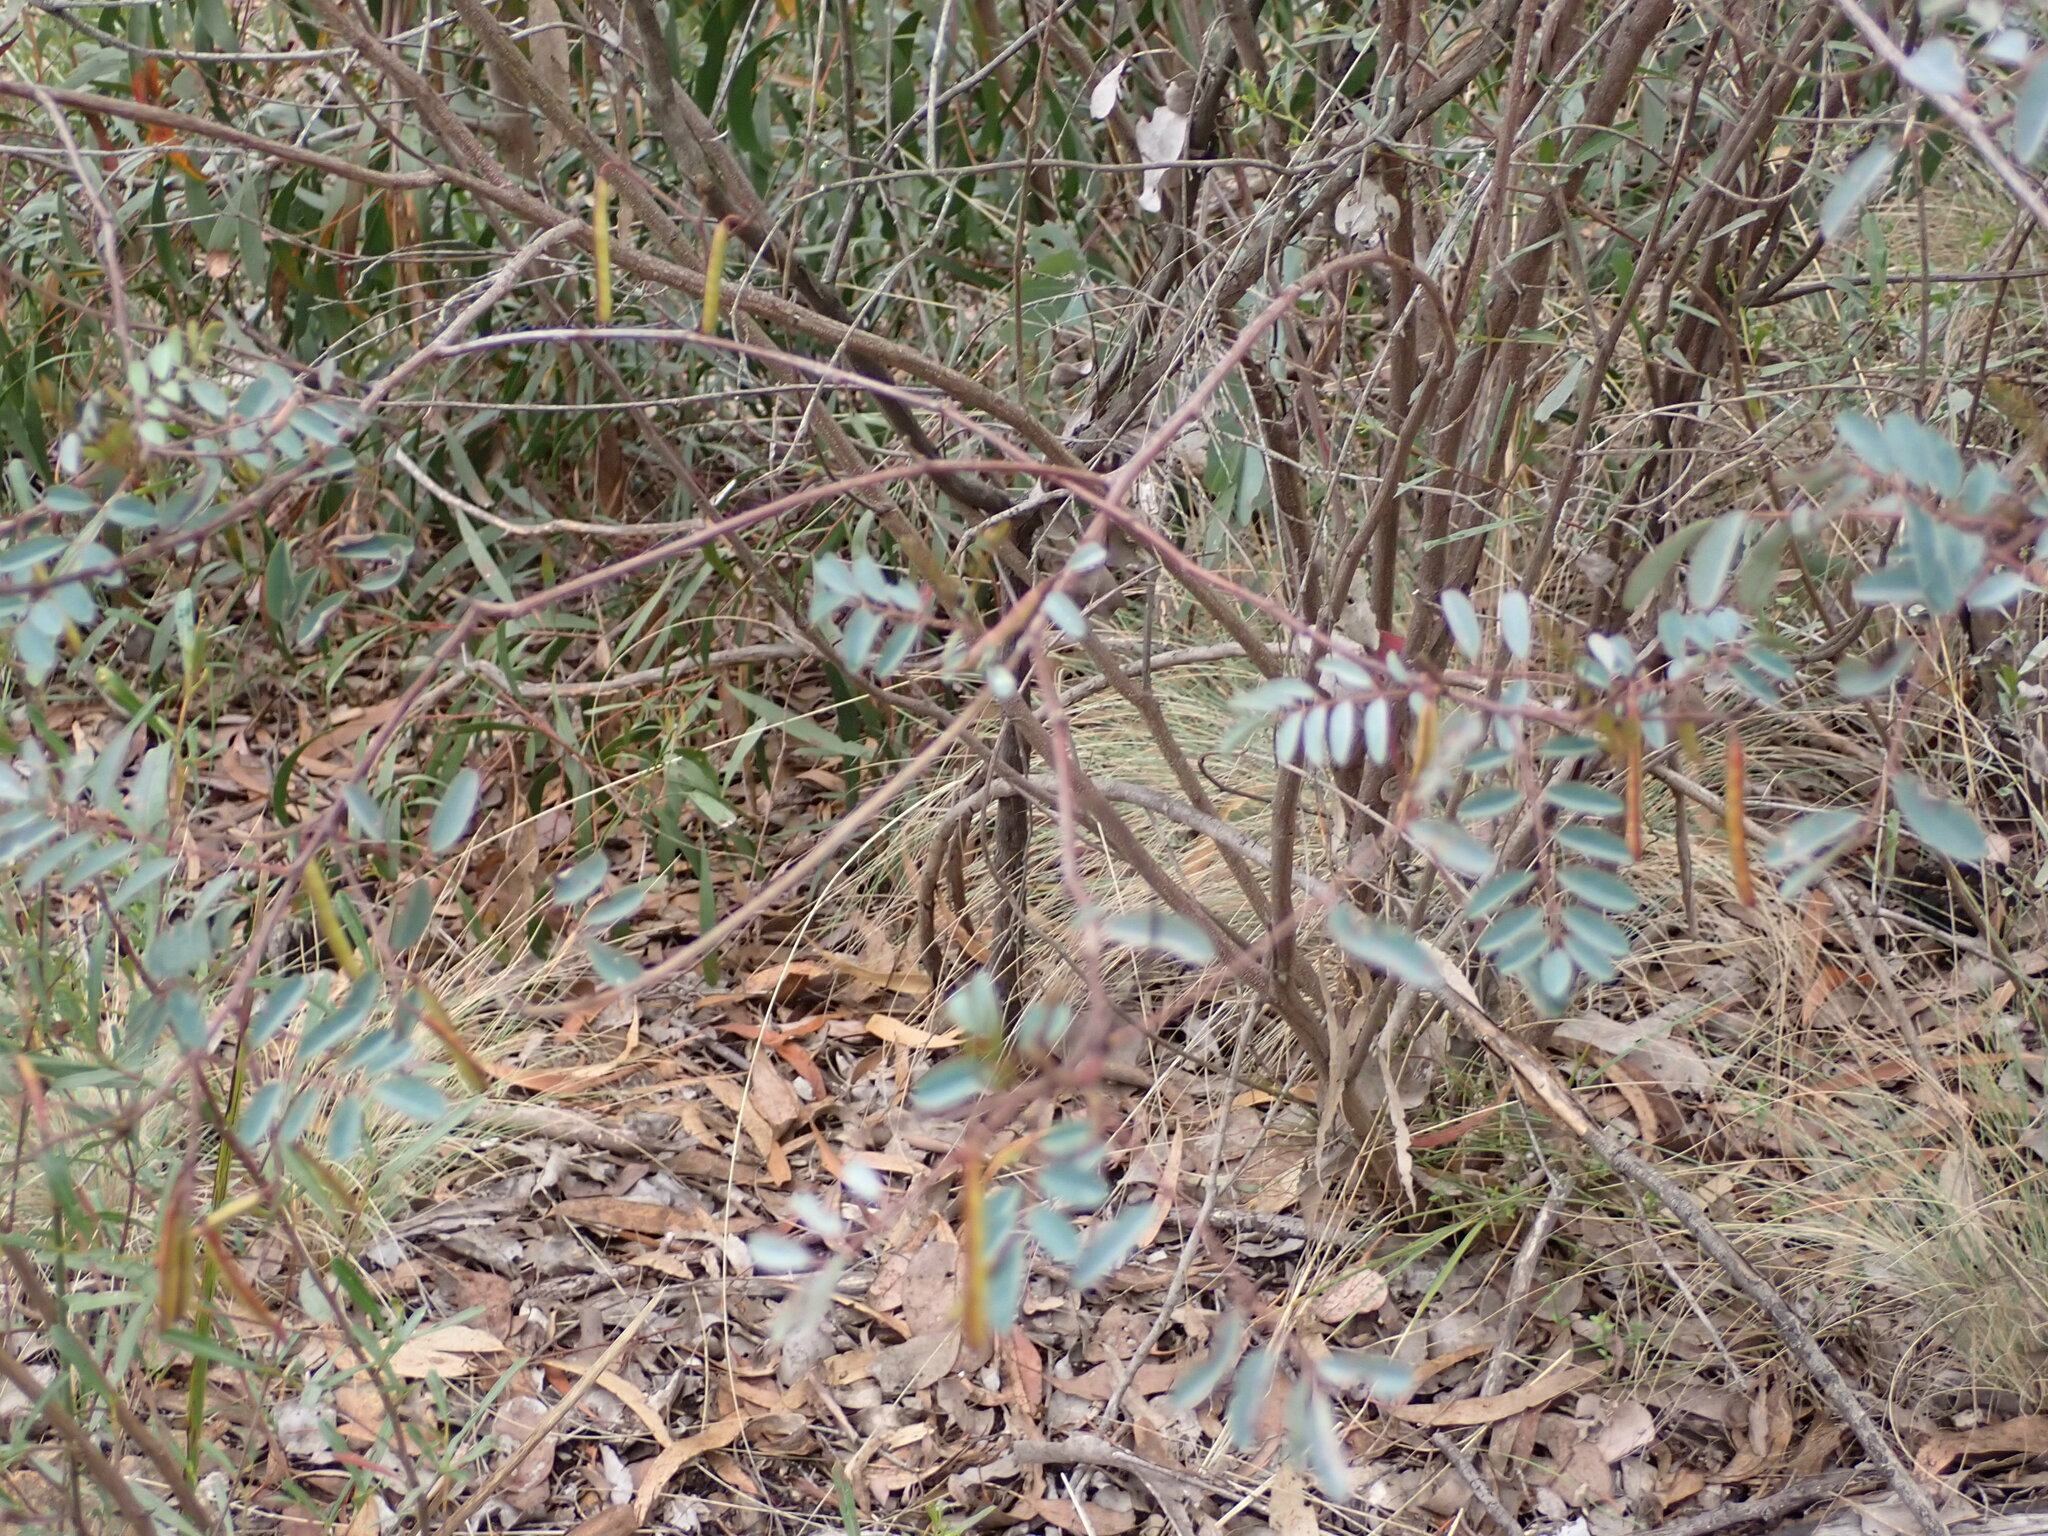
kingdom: Plantae
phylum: Tracheophyta
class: Magnoliopsida
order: Fabales
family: Fabaceae
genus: Indigofera
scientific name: Indigofera australis
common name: Australian indigo
